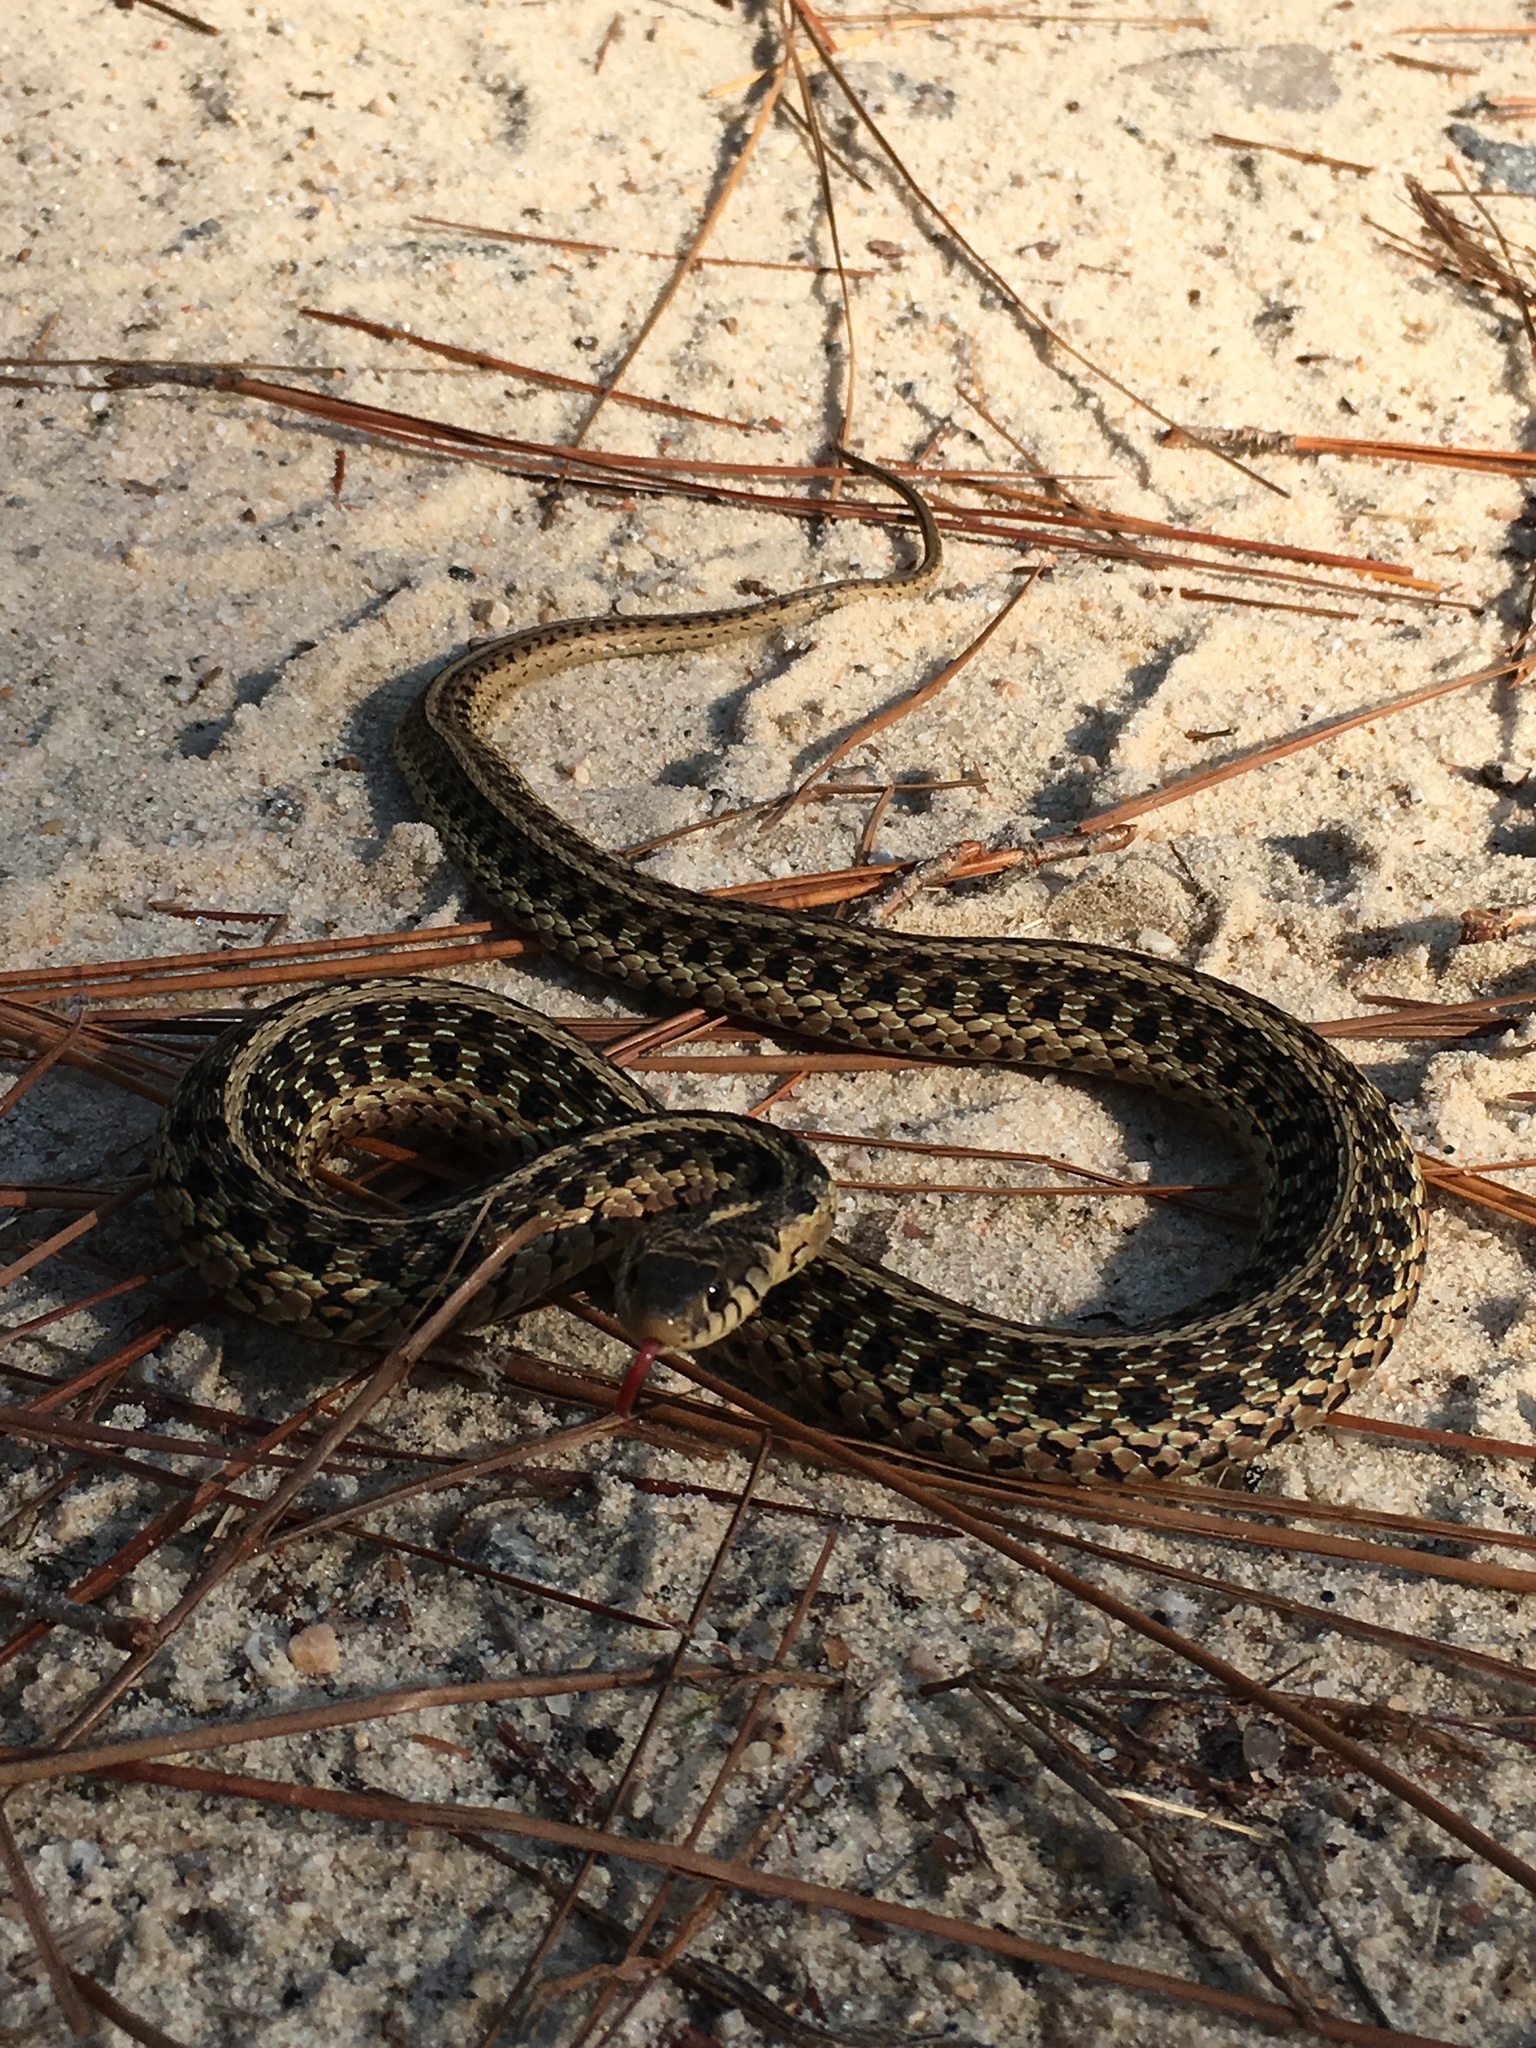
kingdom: Animalia
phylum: Chordata
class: Squamata
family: Colubridae
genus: Thamnophis
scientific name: Thamnophis sirtalis
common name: Common garter snake
